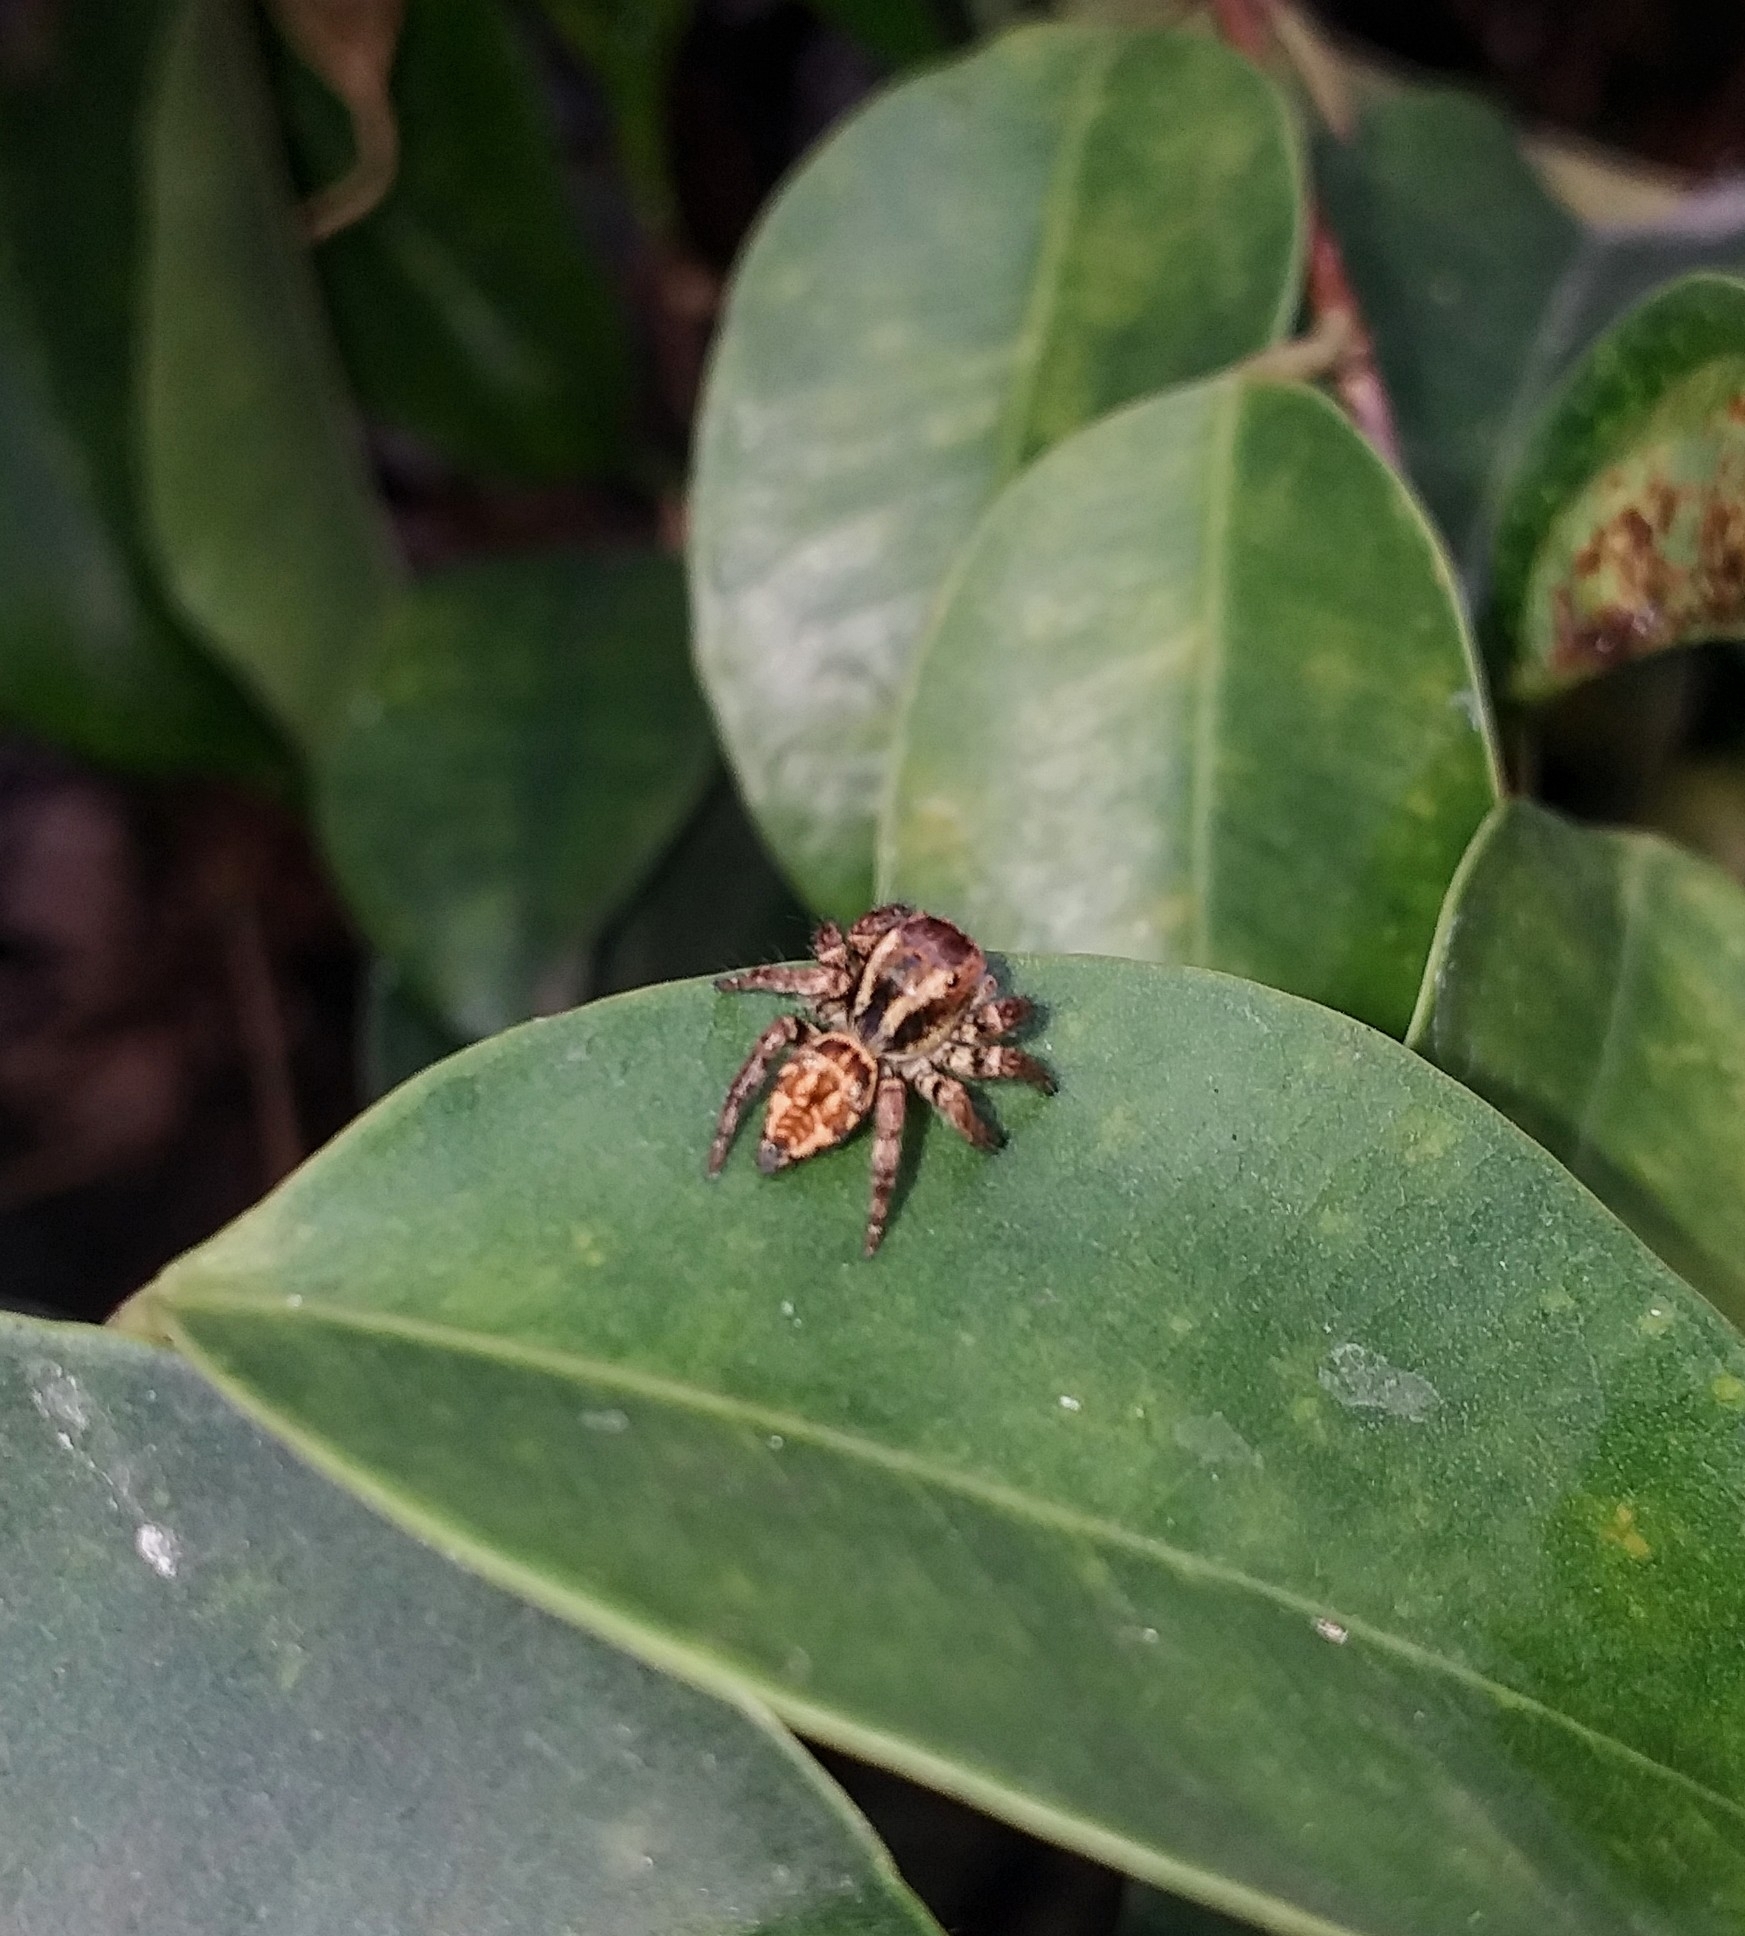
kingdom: Animalia
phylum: Arthropoda
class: Arachnida
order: Araneae
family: Salticidae
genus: Carrhotus
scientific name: Carrhotus viduus
